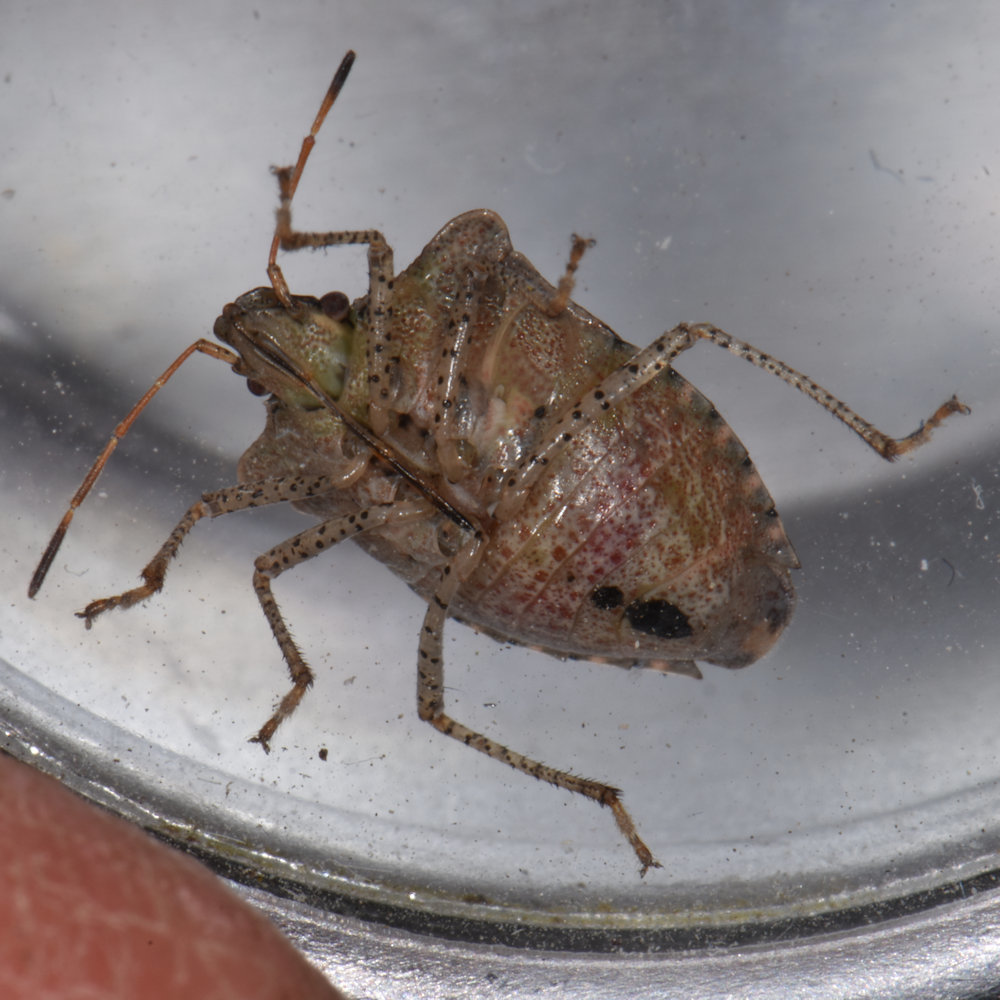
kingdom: Animalia
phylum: Arthropoda
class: Insecta
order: Hemiptera
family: Pentatomidae
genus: Euschistus
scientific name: Euschistus tristigmus
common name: Dusky stink bug
